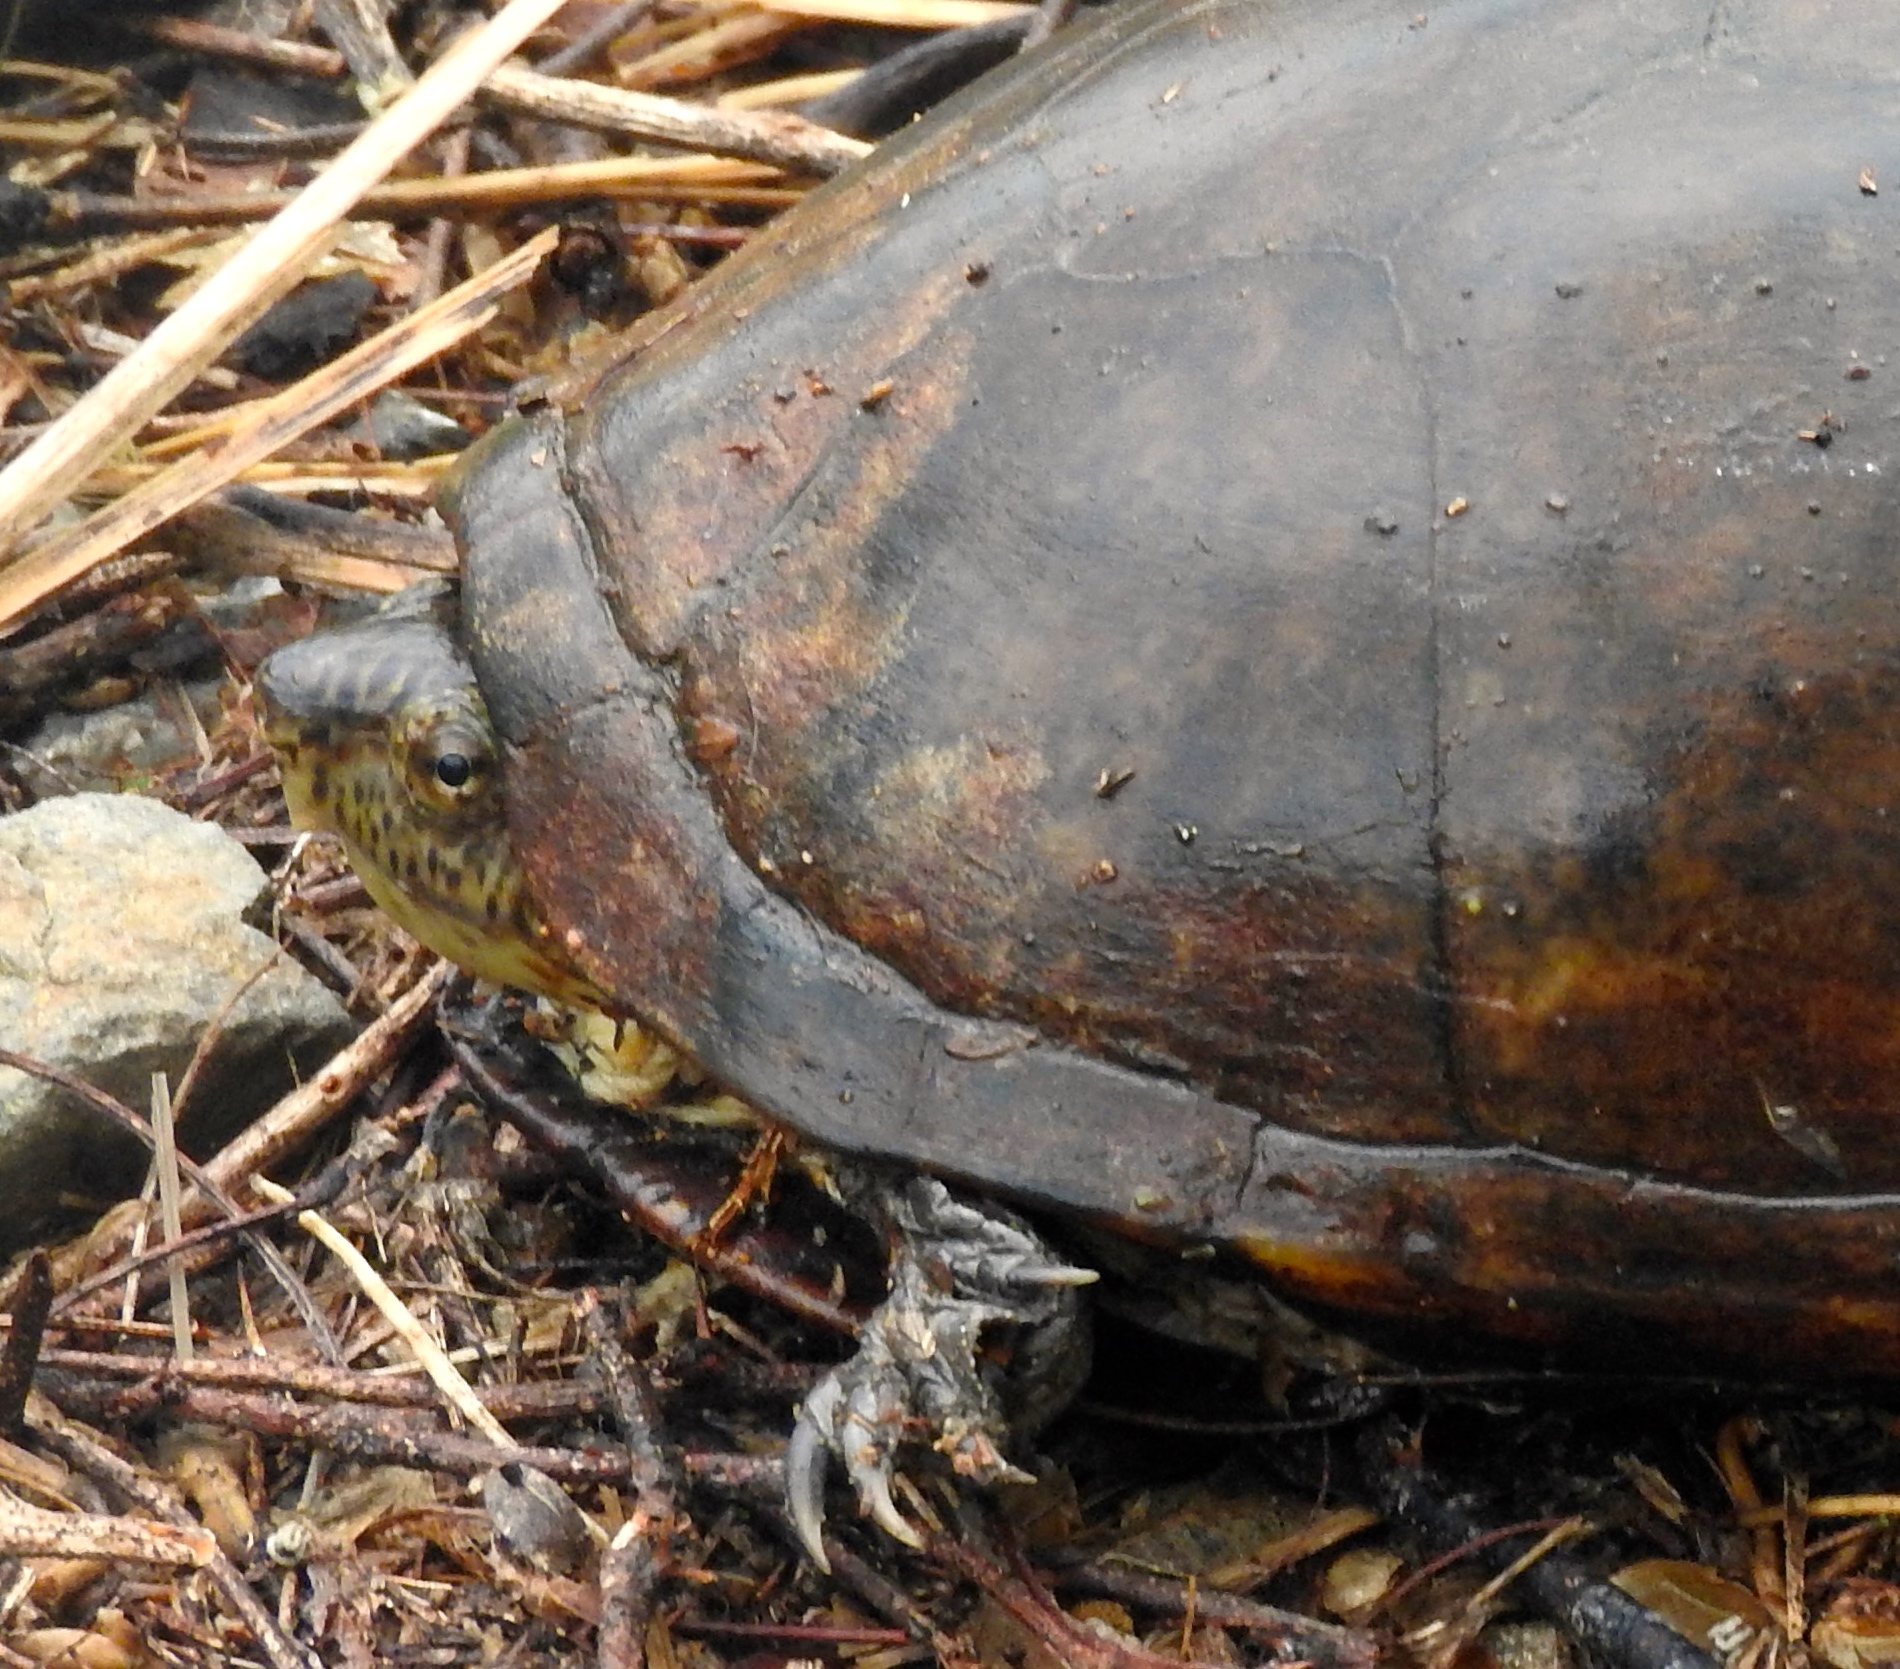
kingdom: Animalia
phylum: Chordata
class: Testudines
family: Kinosternidae
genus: Kinosternon
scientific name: Kinosternon integrum
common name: Mexican mud turtle
